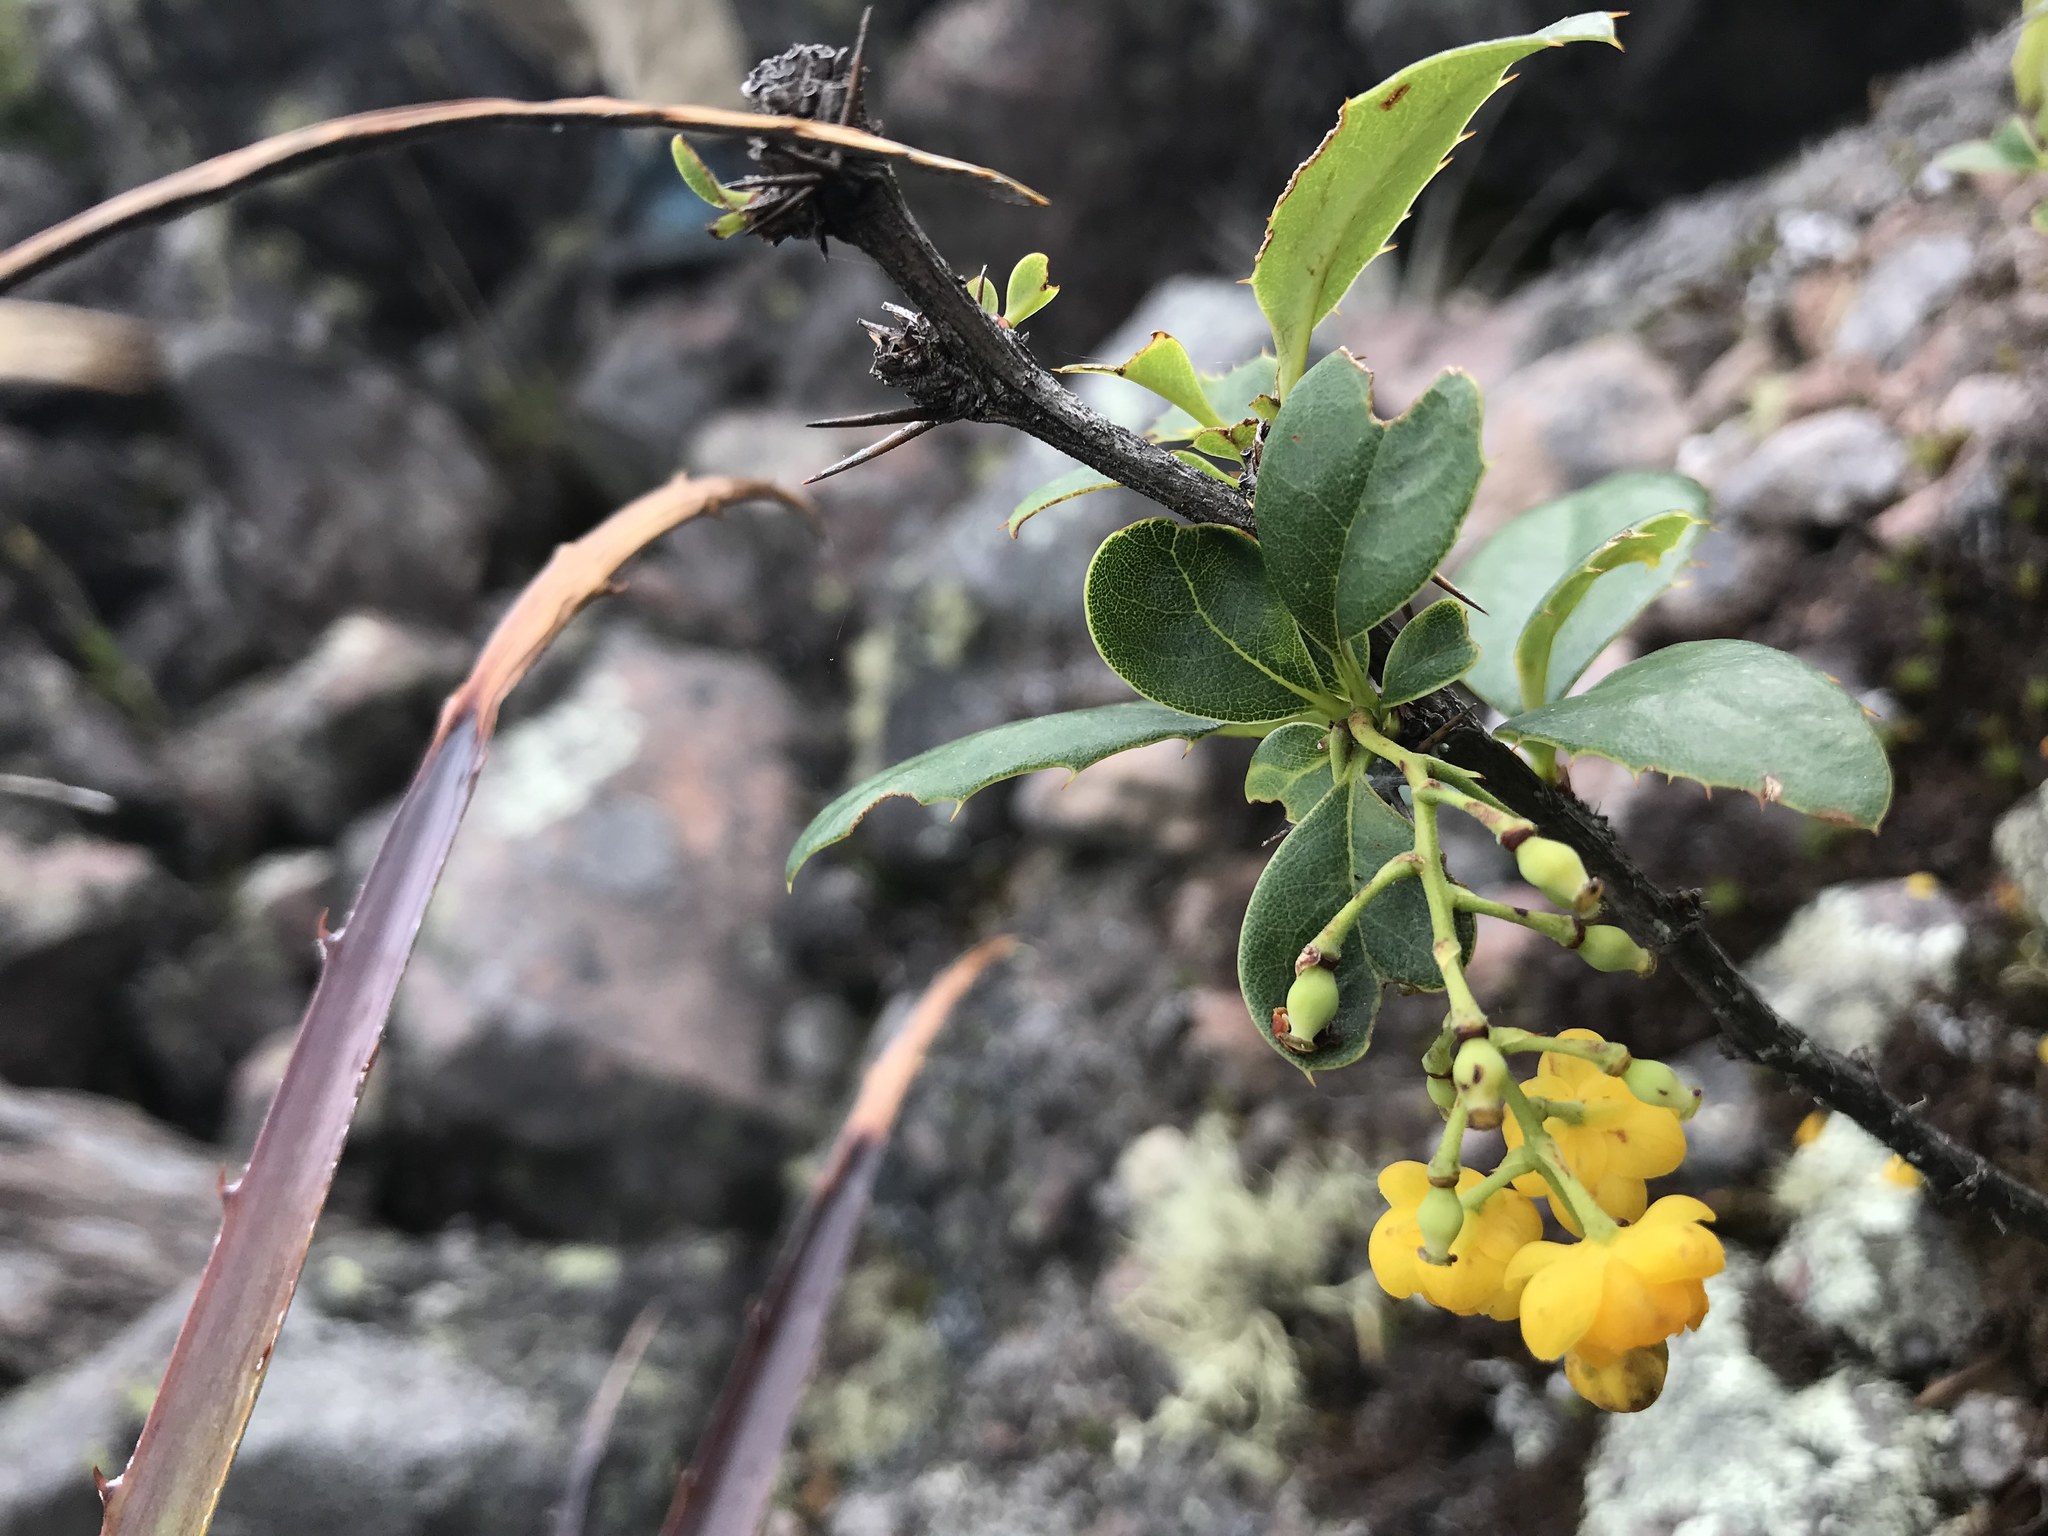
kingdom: Plantae
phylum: Tracheophyta
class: Magnoliopsida
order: Ranunculales
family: Berberidaceae
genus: Berberis
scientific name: Berberis hallii
